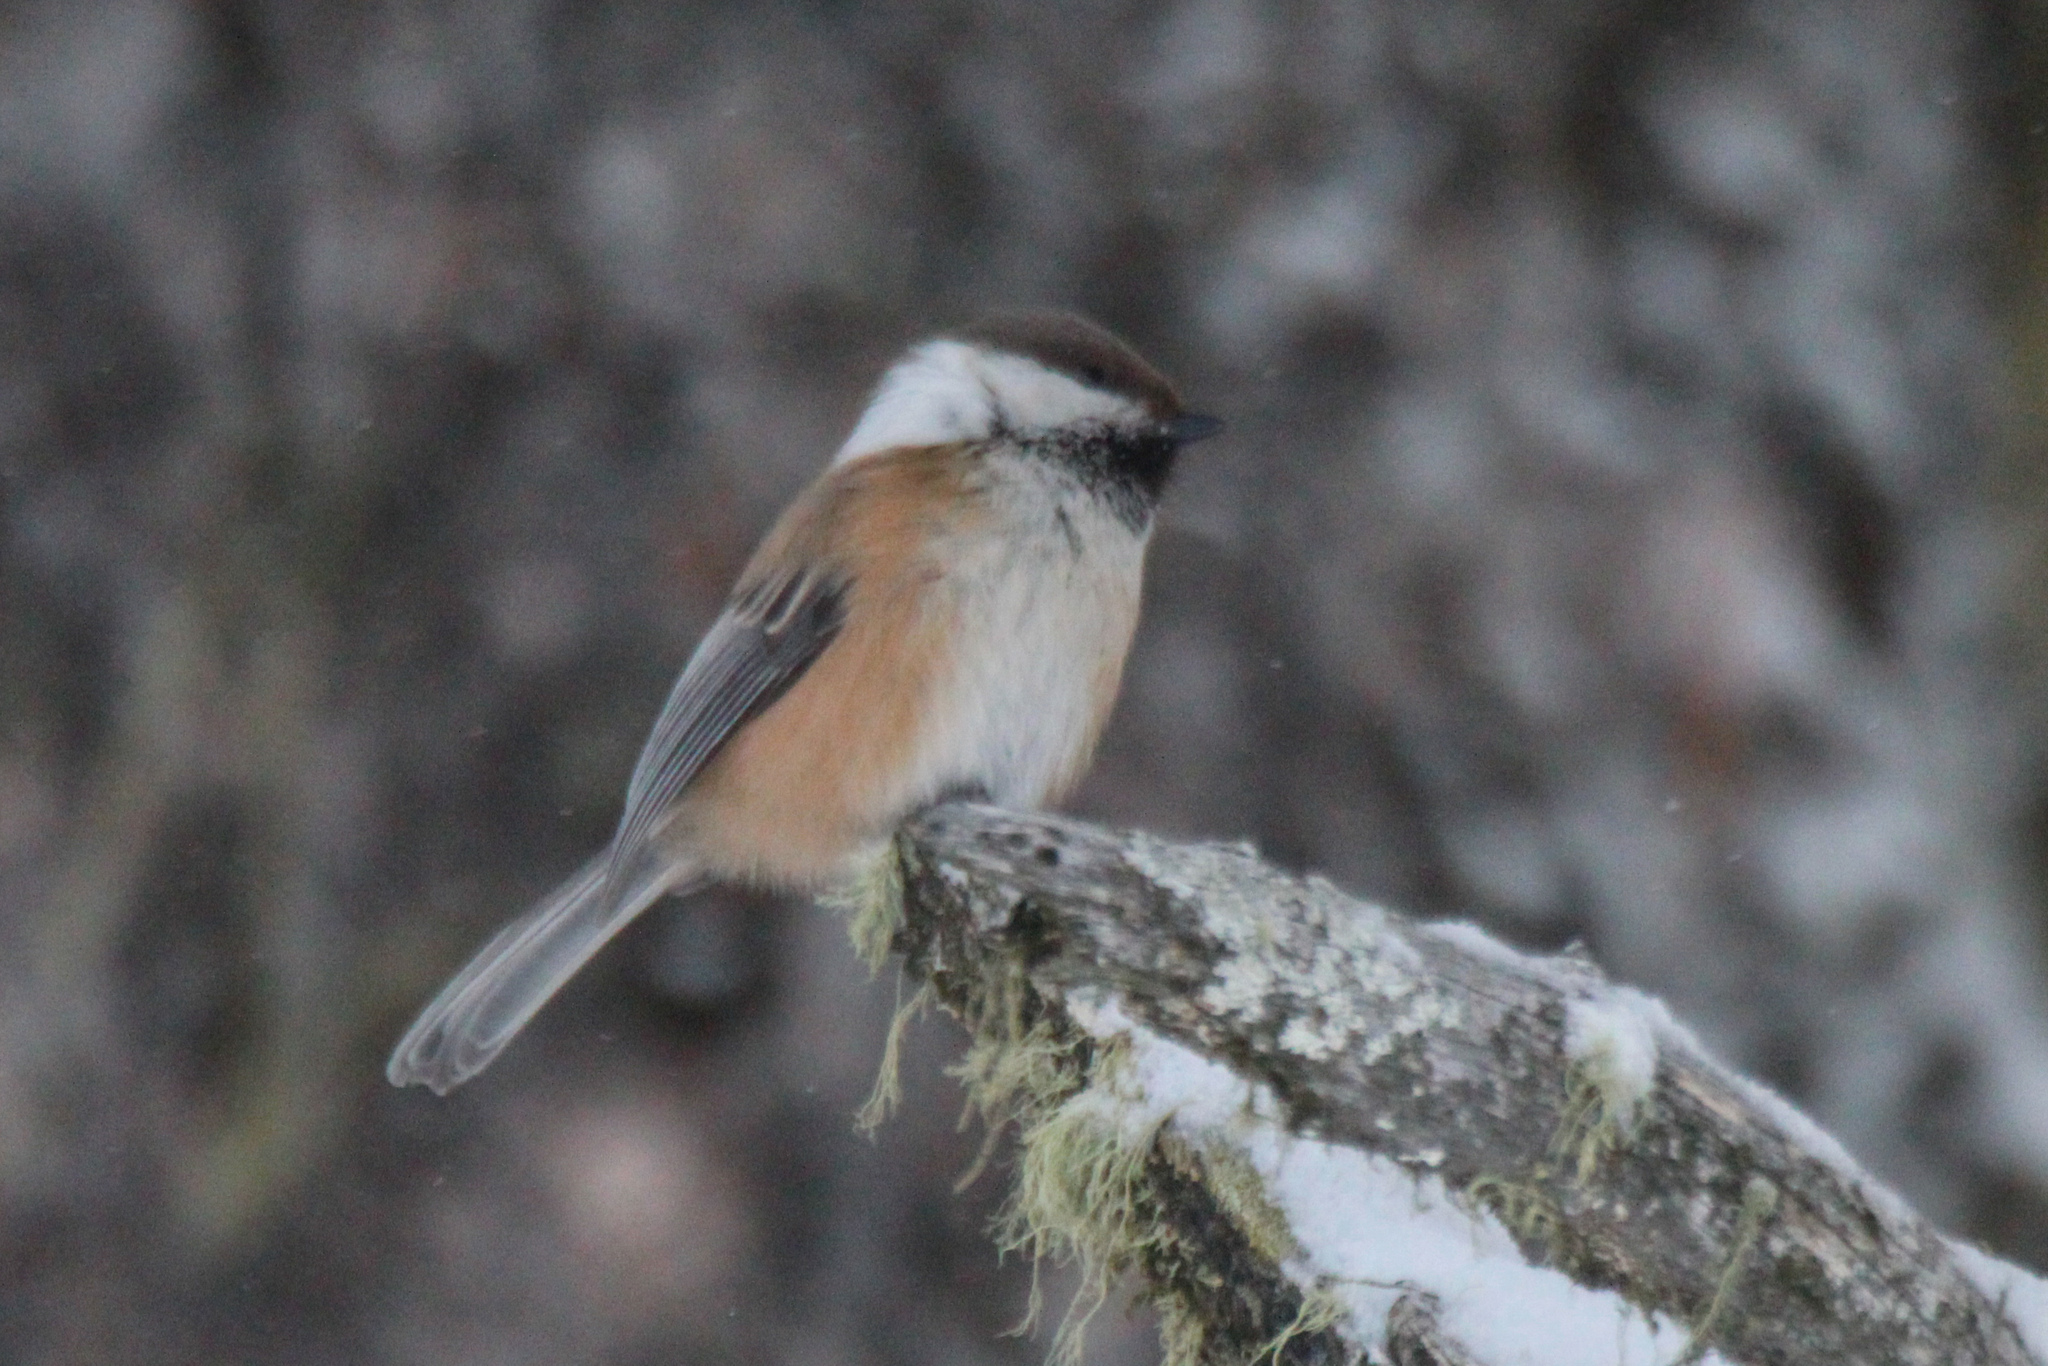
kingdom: Animalia
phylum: Chordata
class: Aves
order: Passeriformes
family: Paridae
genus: Poecile
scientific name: Poecile cinctus
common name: Gray-headed chickadee
